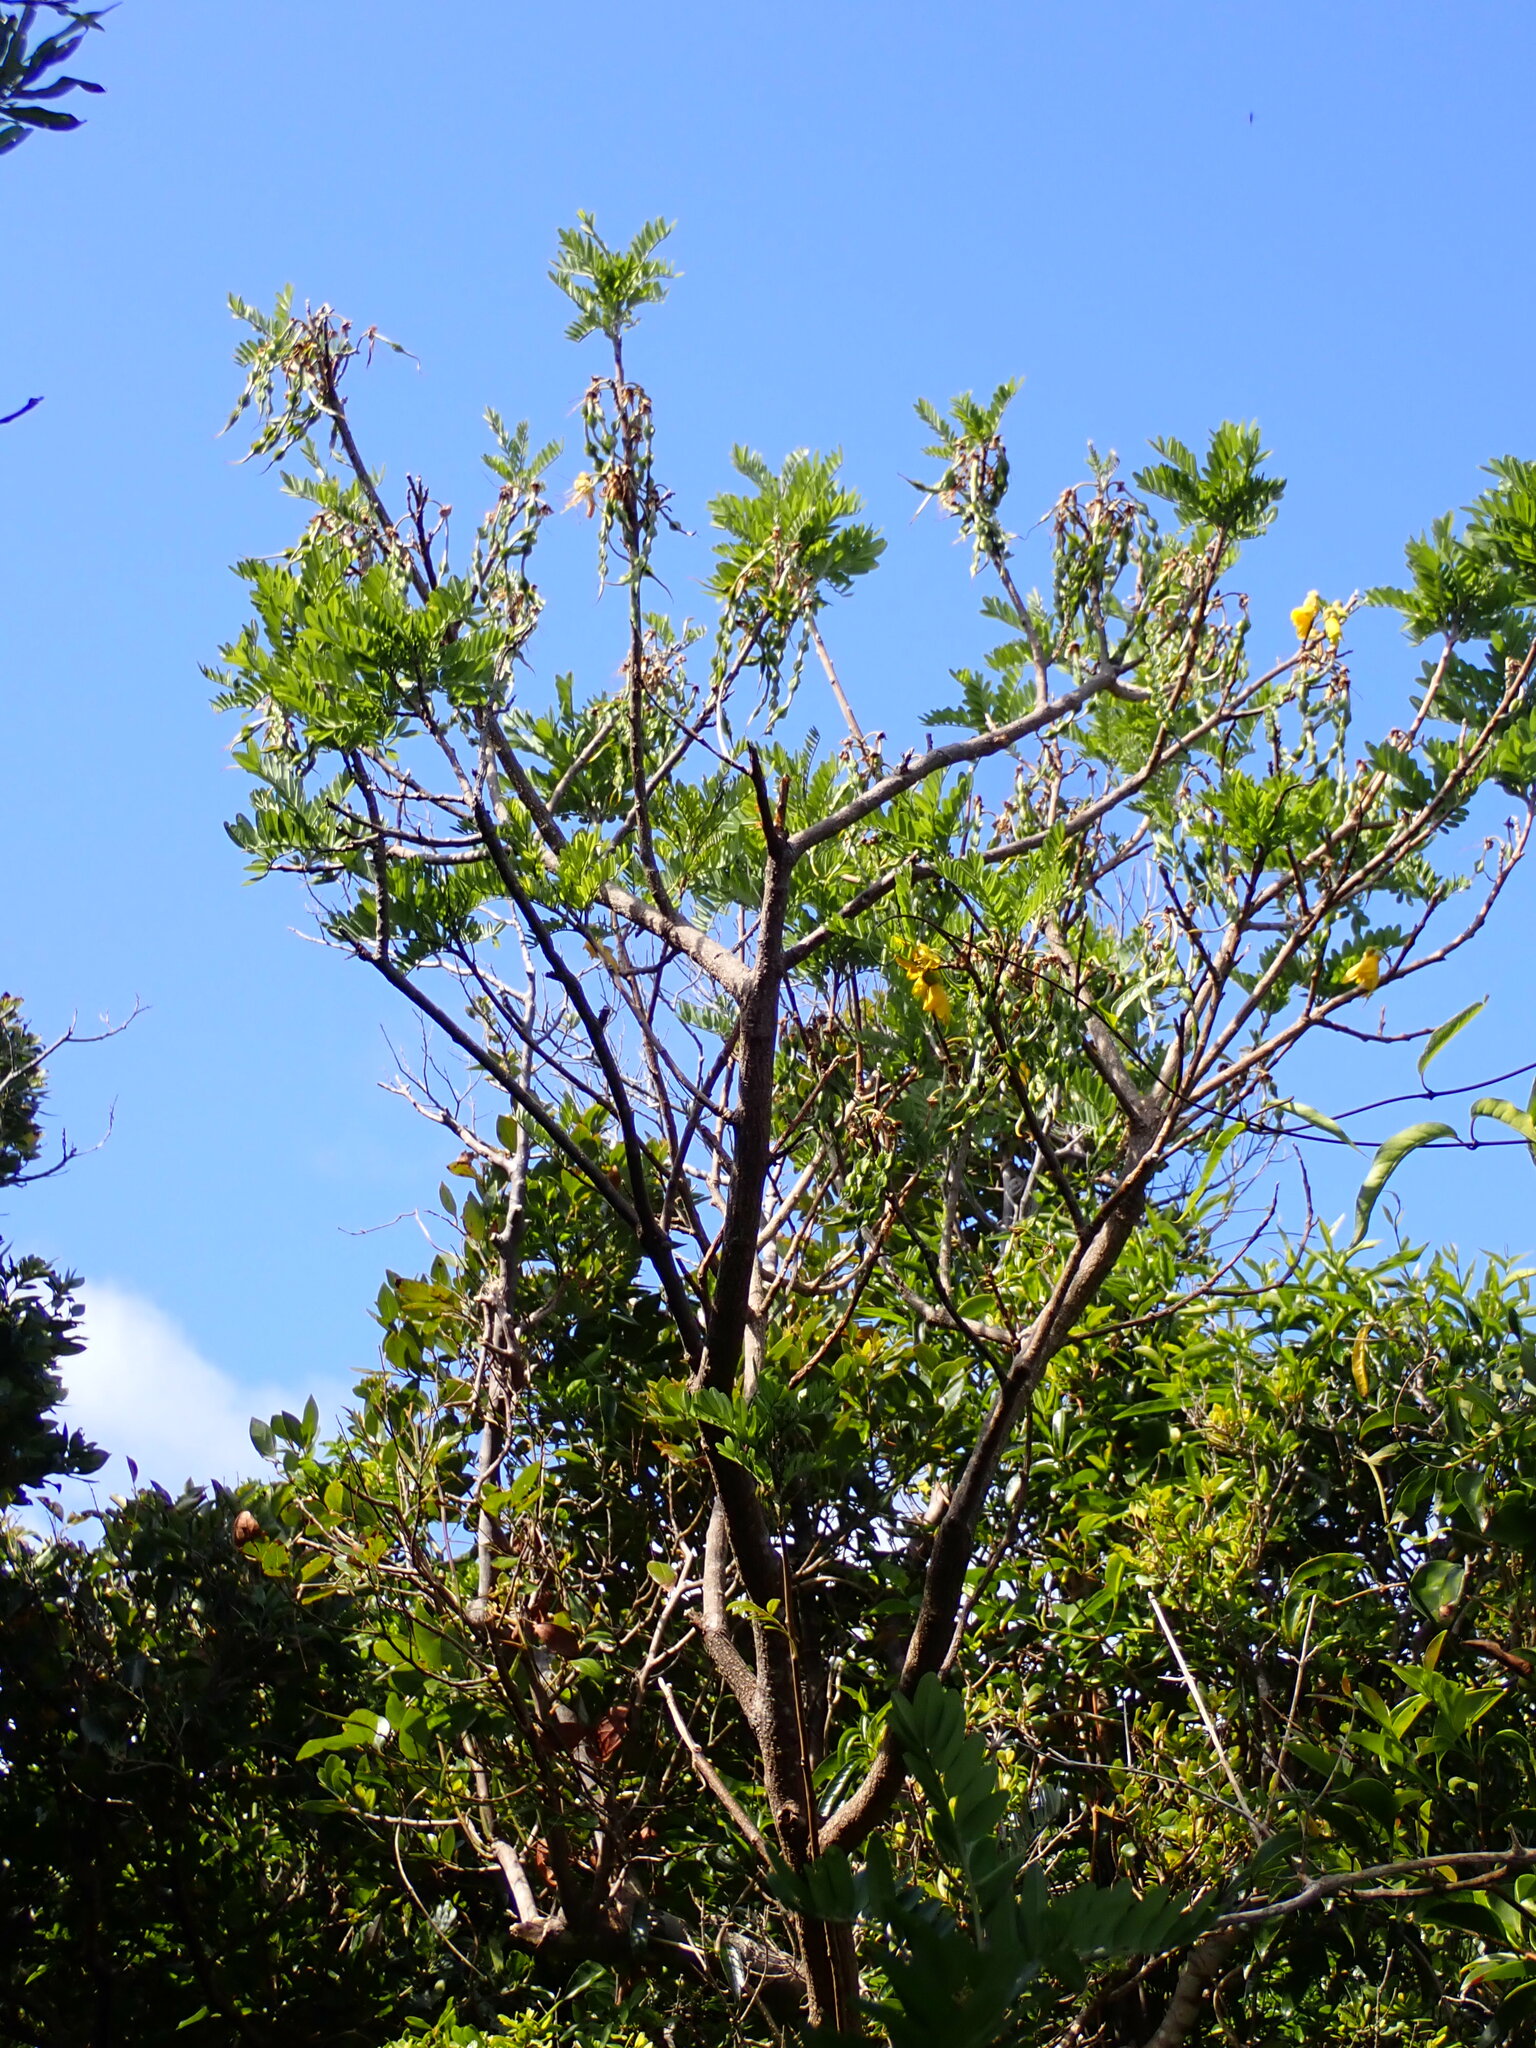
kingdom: Plantae
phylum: Tracheophyta
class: Magnoliopsida
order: Fabales
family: Fabaceae
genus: Sophora
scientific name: Sophora howinsula
